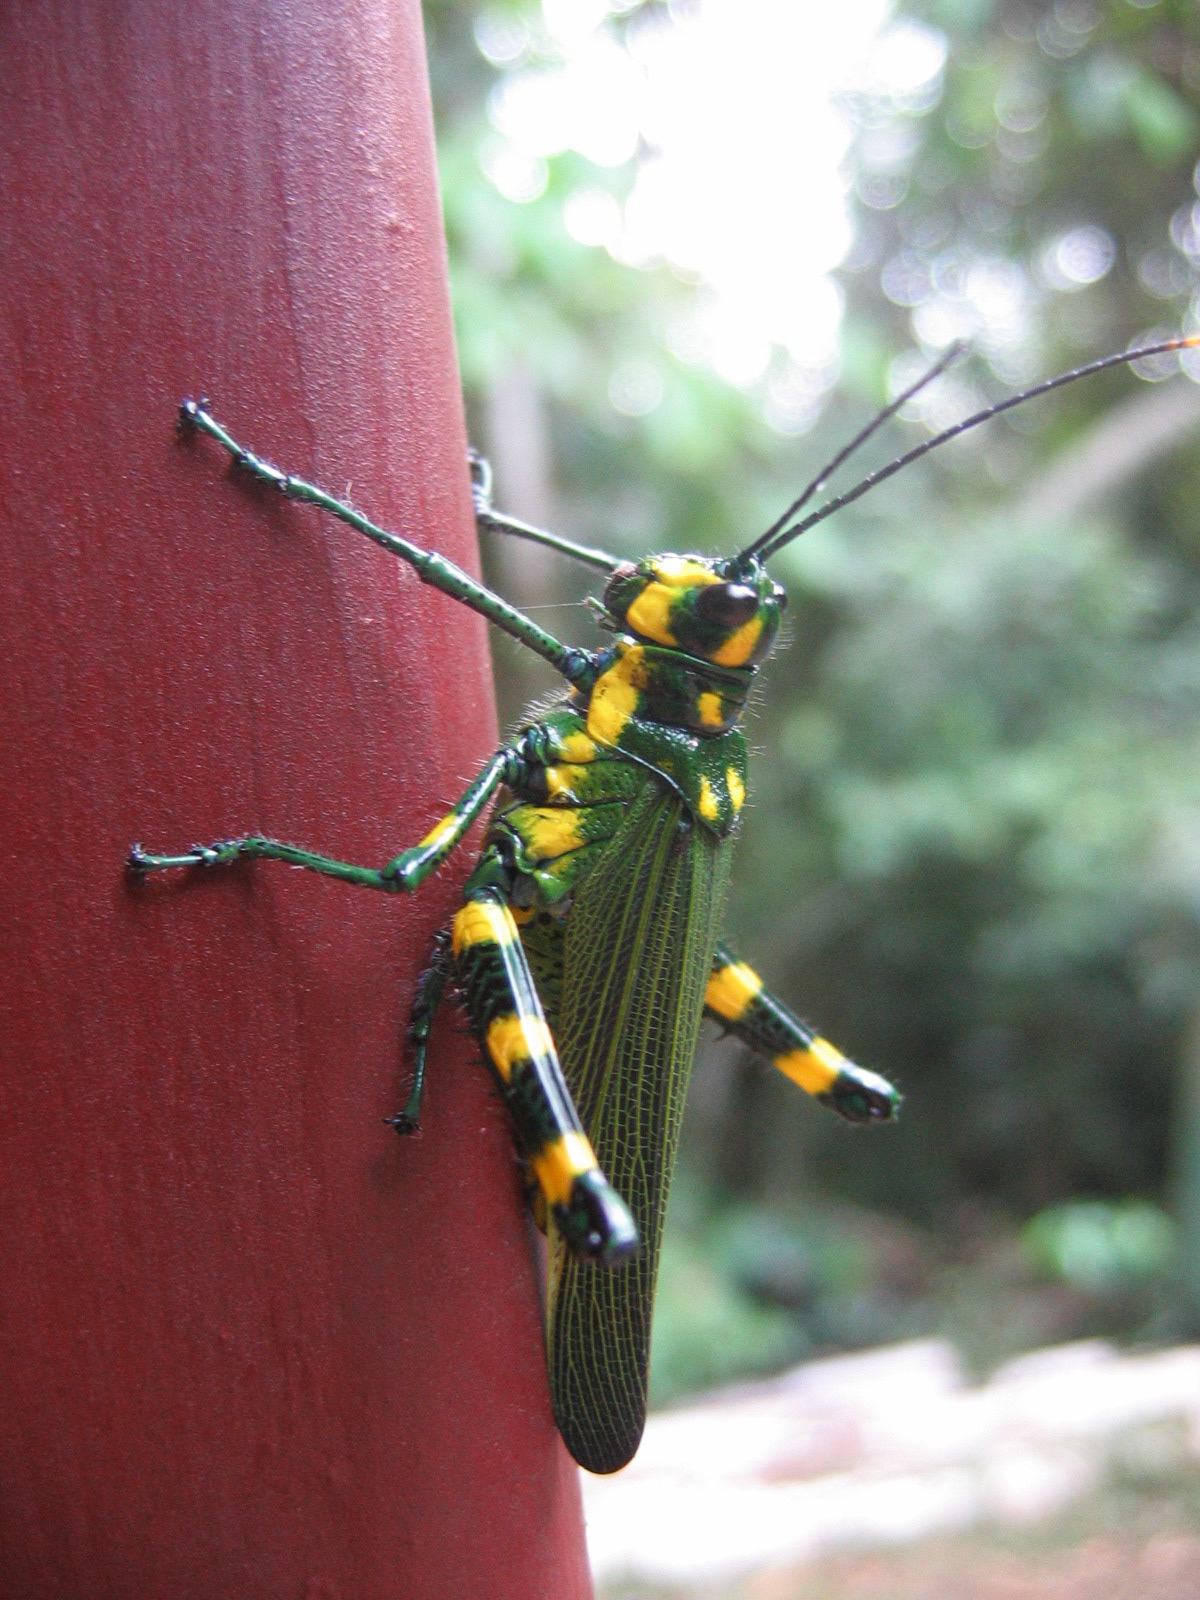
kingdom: Animalia
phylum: Arthropoda
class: Insecta
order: Orthoptera
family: Romaleidae
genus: Chromacris
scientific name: Chromacris icterus
